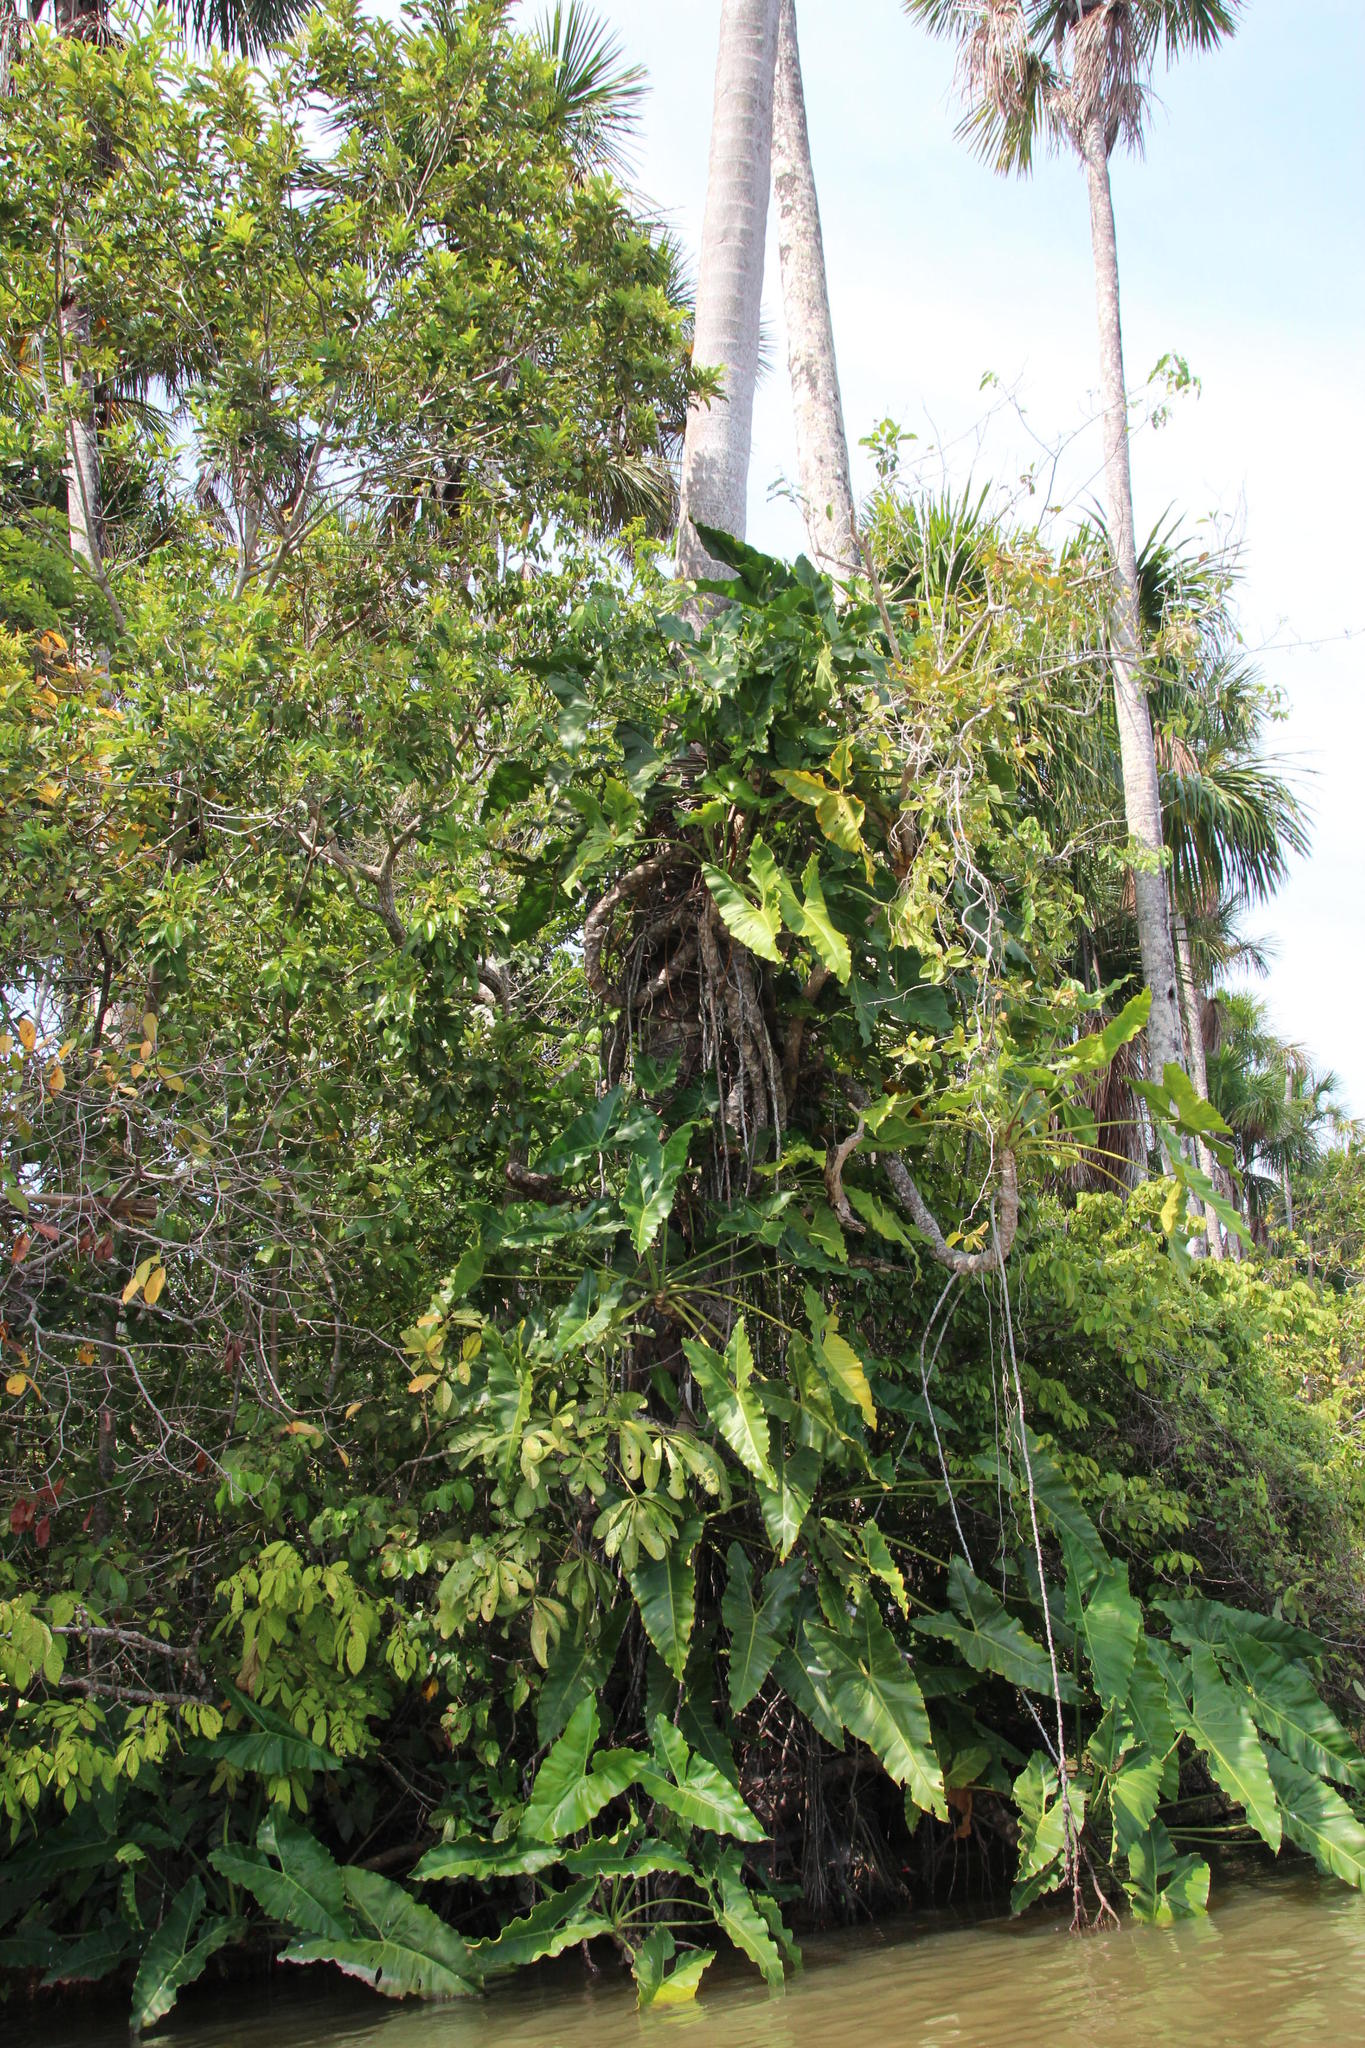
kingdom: Plantae
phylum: Tracheophyta
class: Liliopsida
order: Alismatales
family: Araceae
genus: Philodendron
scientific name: Philodendron deflexum
